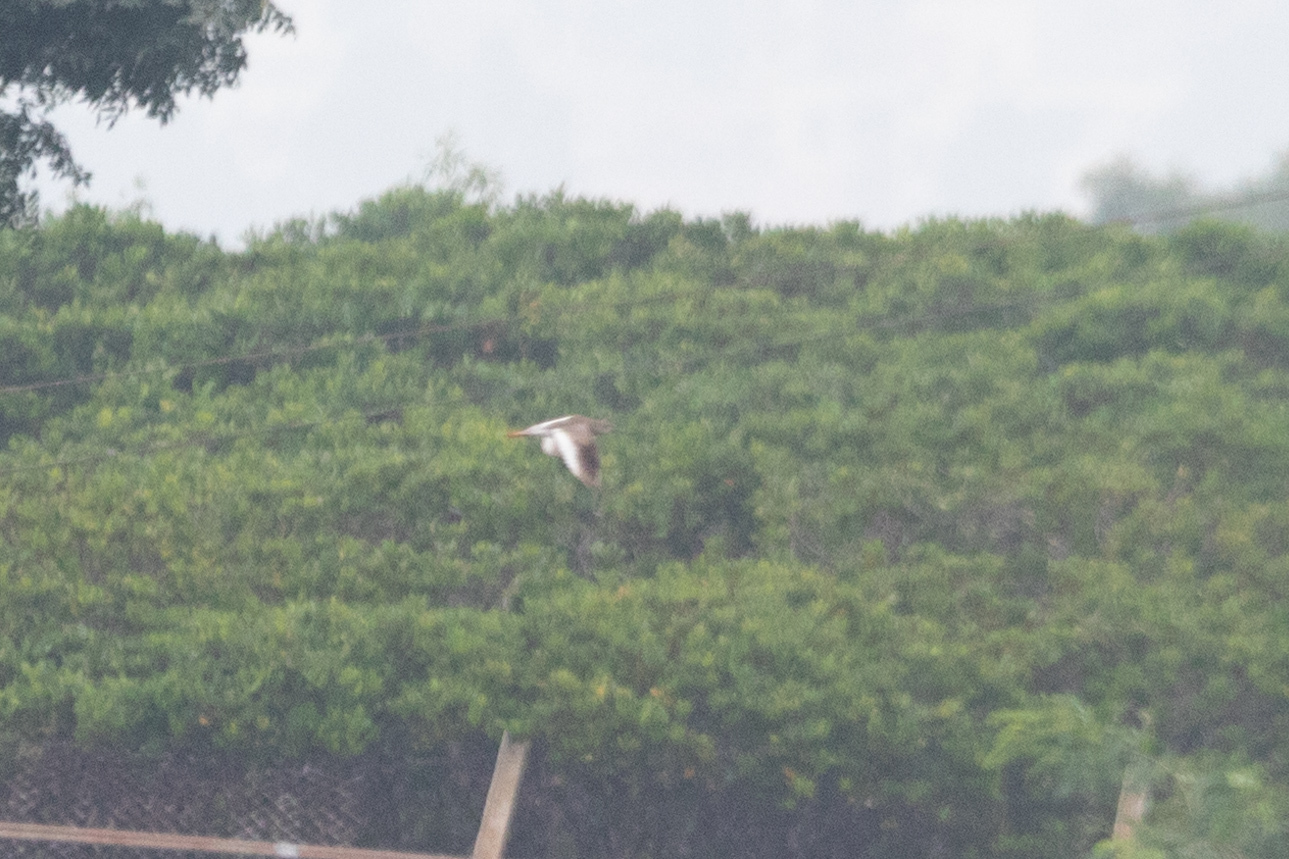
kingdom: Animalia
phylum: Chordata
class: Aves
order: Charadriiformes
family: Scolopacidae
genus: Tringa
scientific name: Tringa totanus
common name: Common redshank
